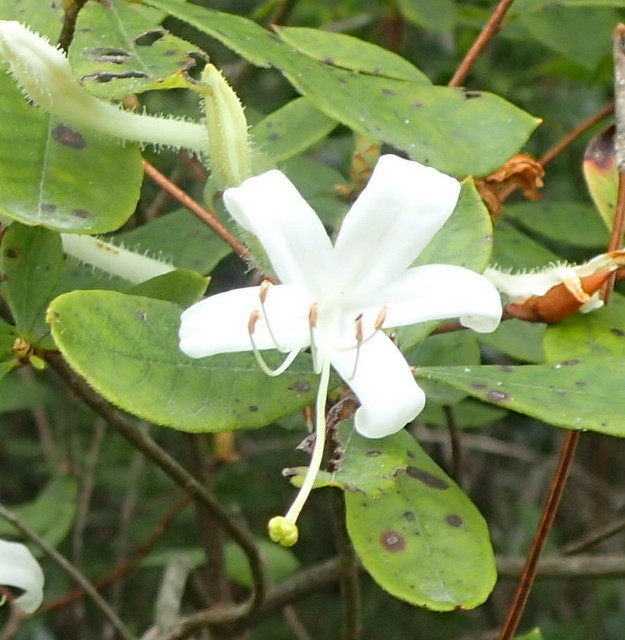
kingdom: Plantae
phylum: Tracheophyta
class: Magnoliopsida
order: Ericales
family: Ericaceae
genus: Rhododendron
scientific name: Rhododendron serrulatum
